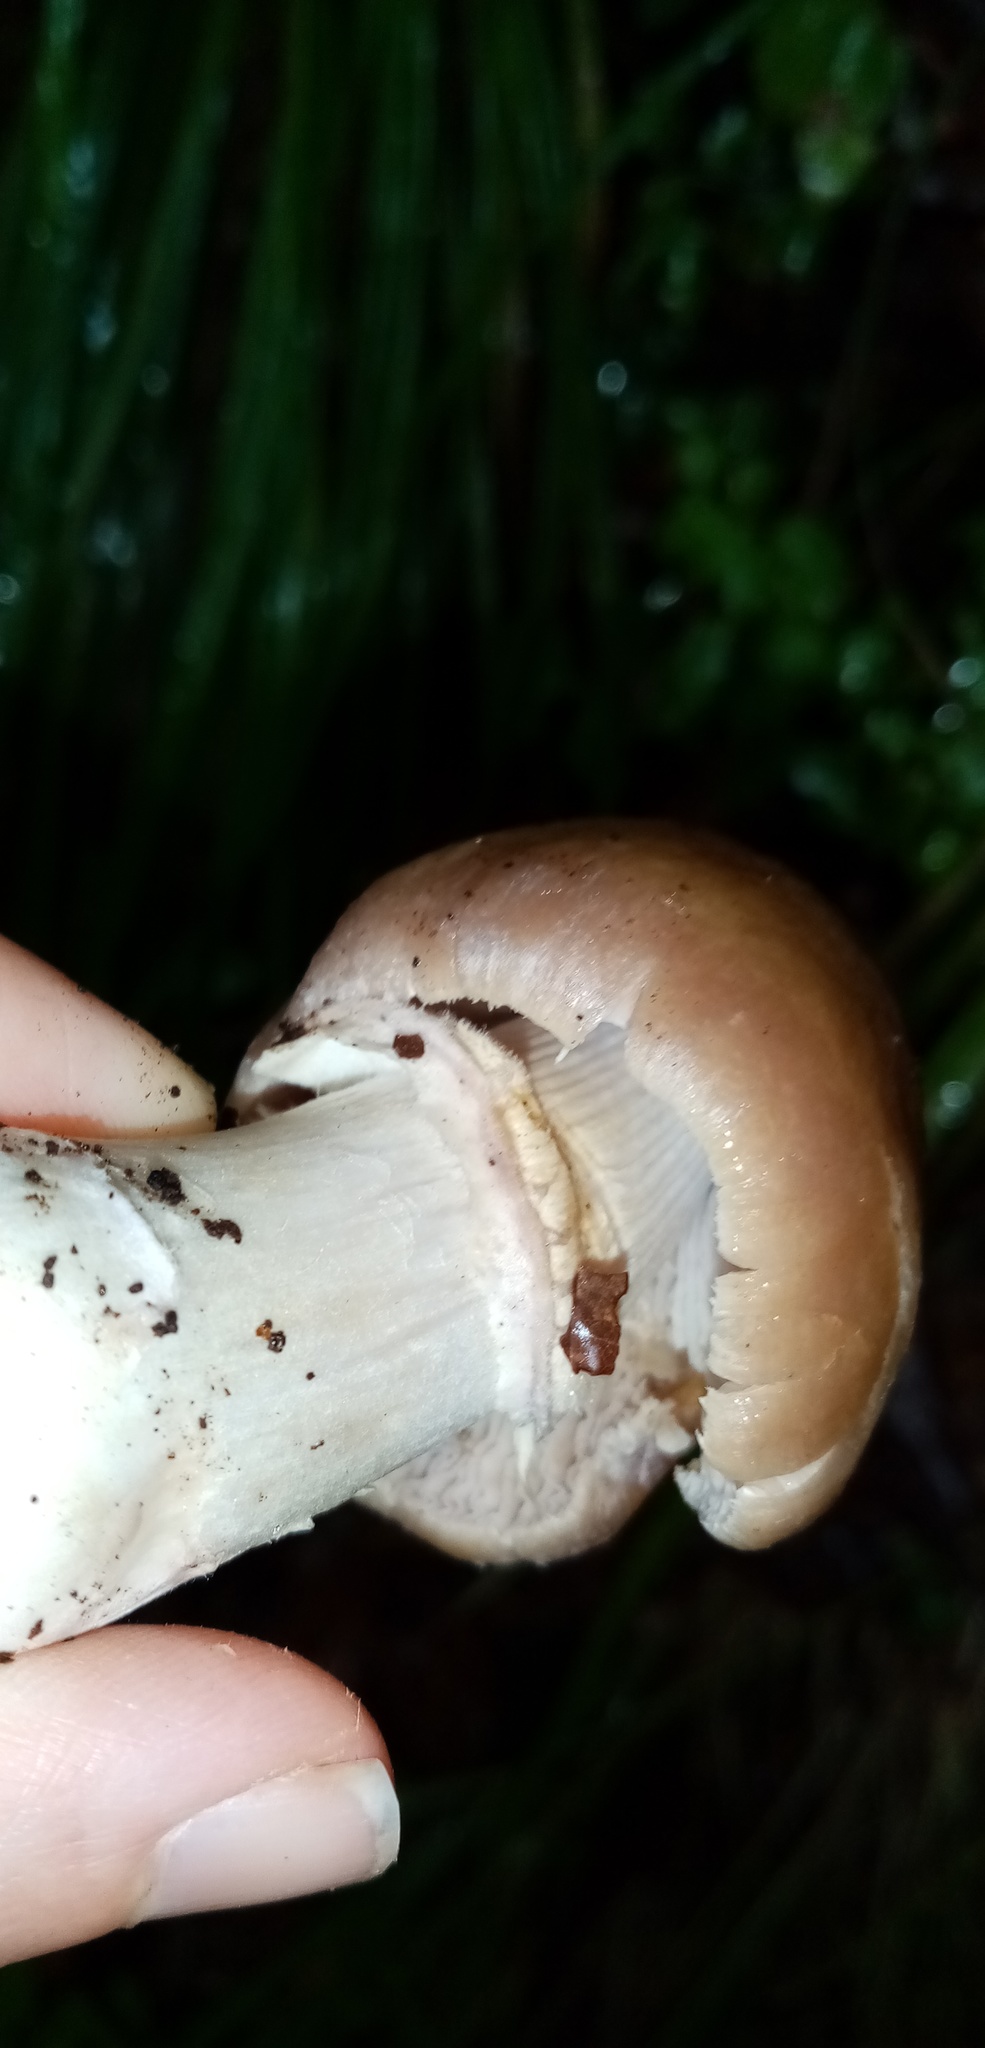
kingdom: Fungi
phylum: Basidiomycota
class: Agaricomycetes
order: Agaricales
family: Cortinariaceae
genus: Cortinarius
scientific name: Cortinarius caperatus
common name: The gypsy
